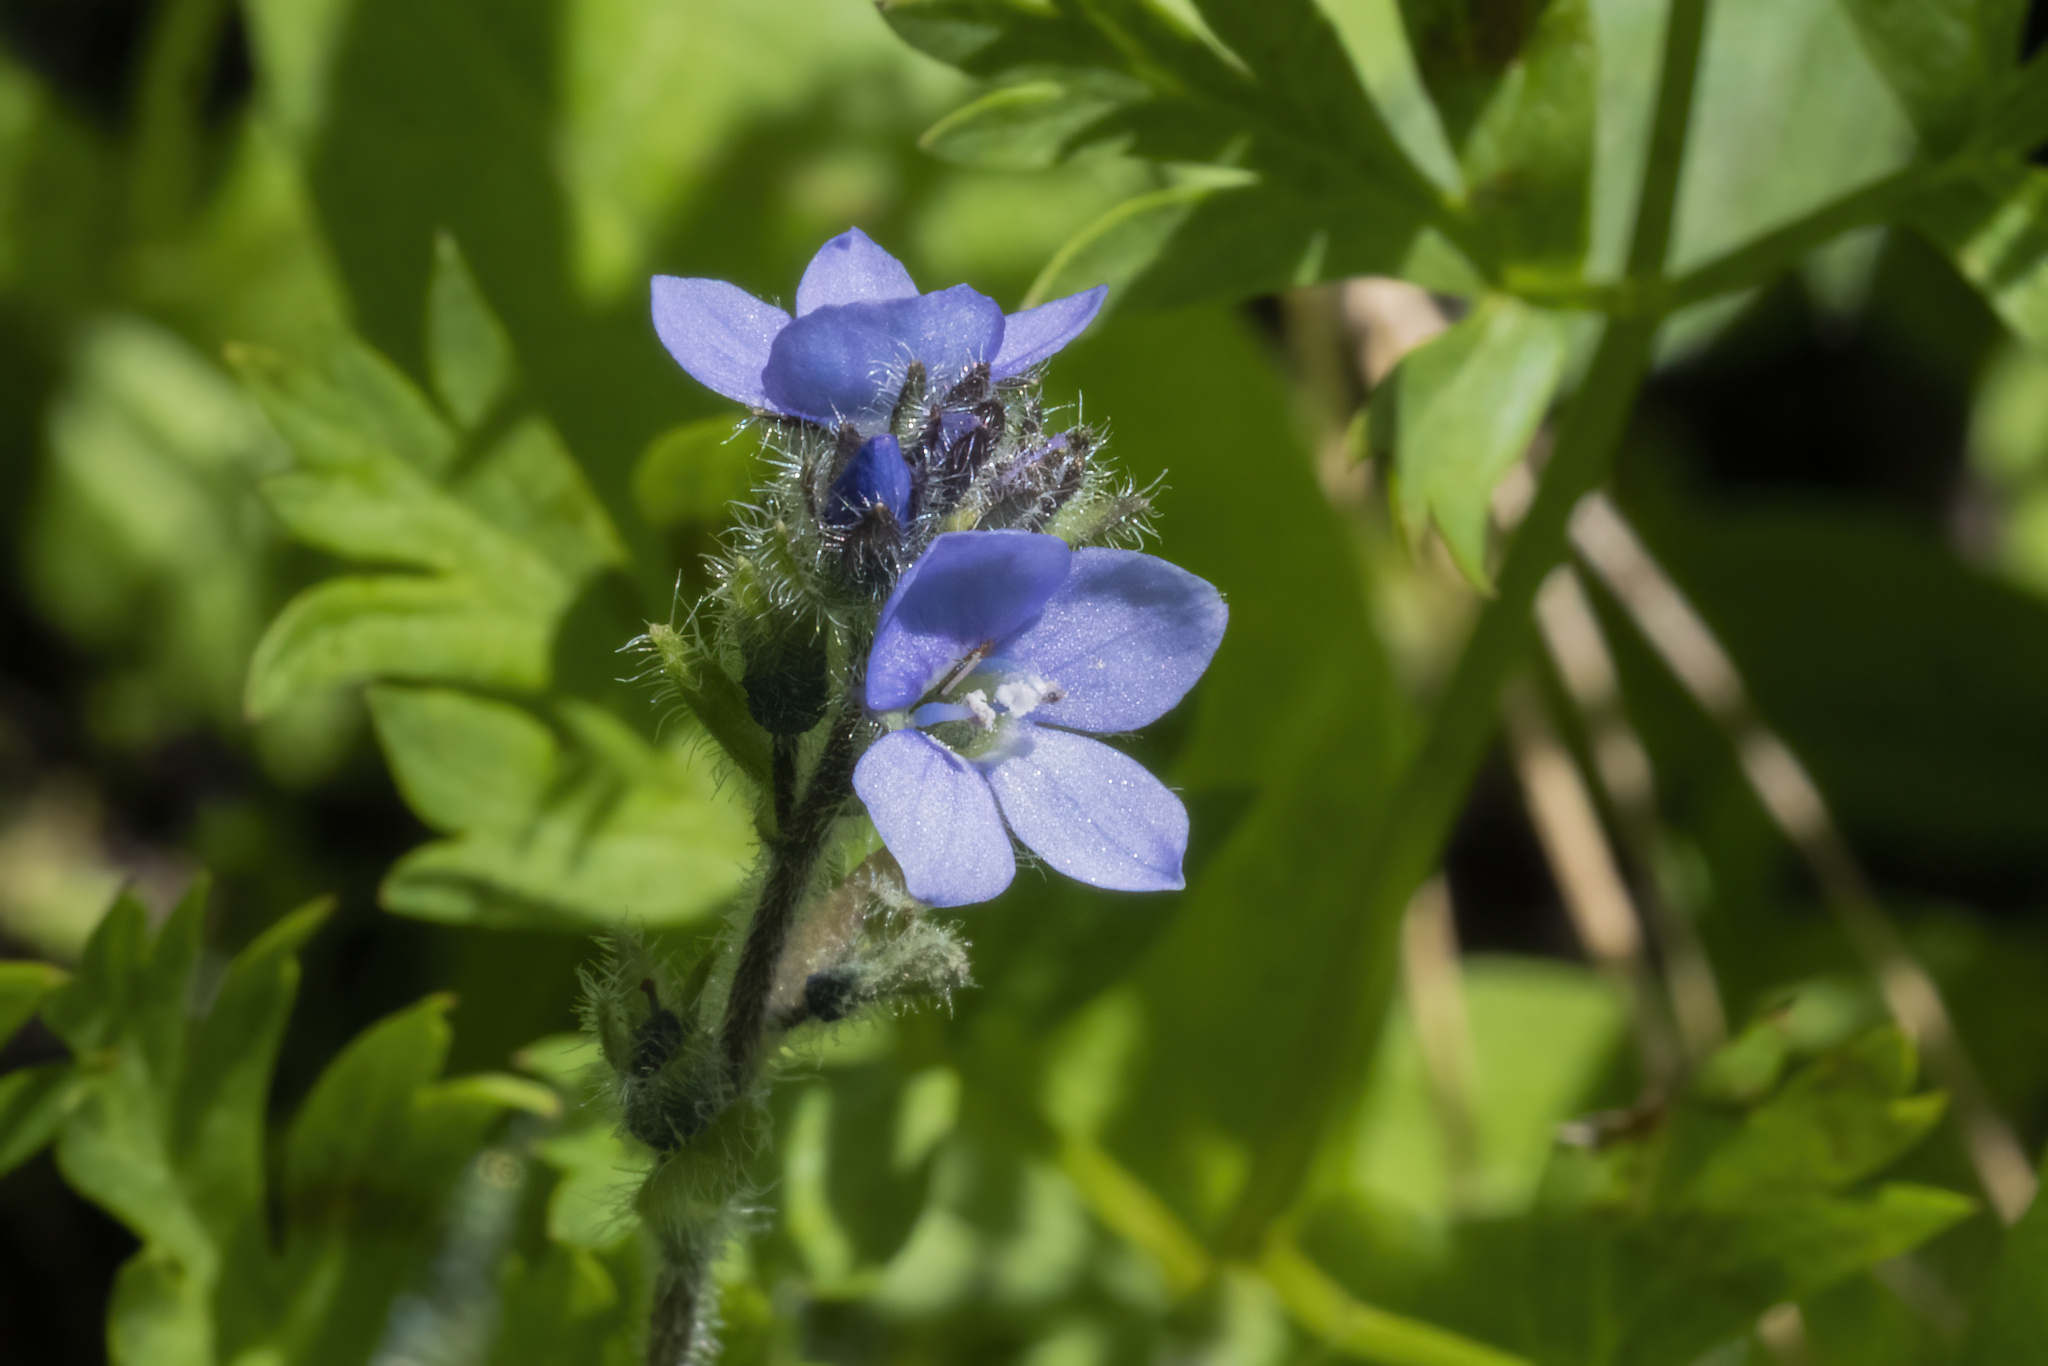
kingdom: Plantae
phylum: Tracheophyta
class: Magnoliopsida
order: Lamiales
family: Plantaginaceae
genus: Veronica
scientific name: Veronica wormskjoldii
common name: American alpine speedwell
